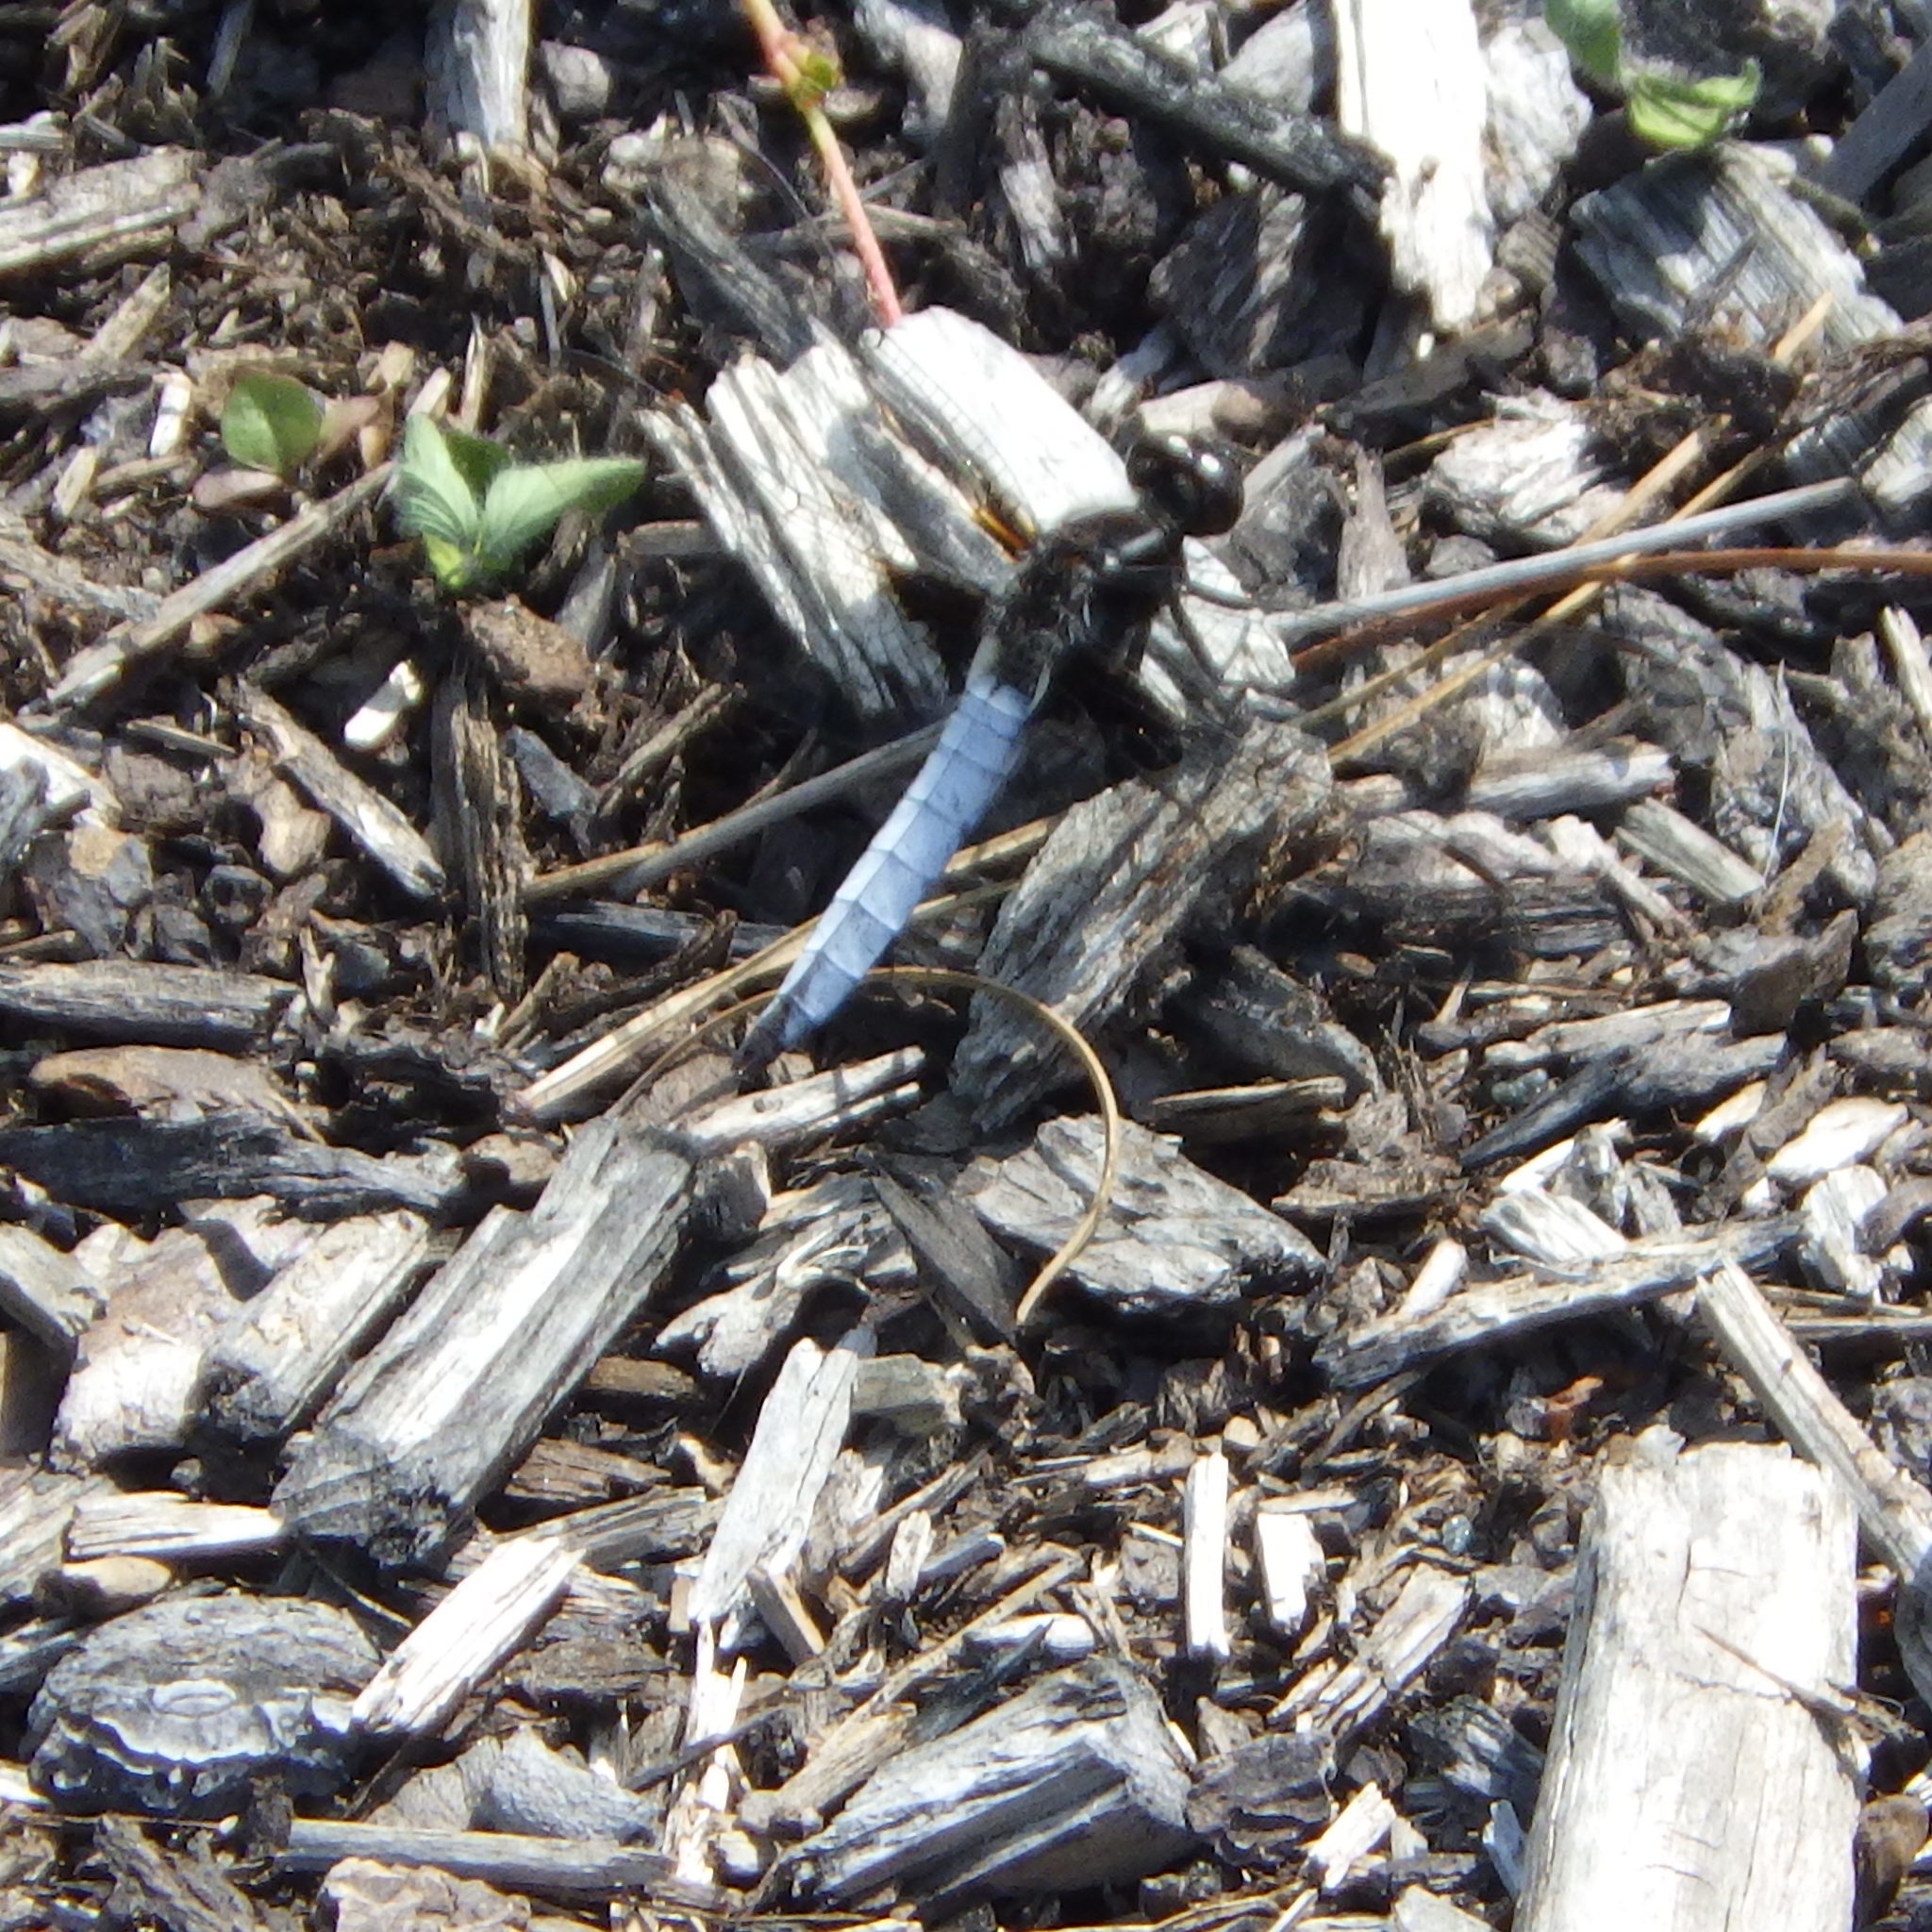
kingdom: Animalia
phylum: Arthropoda
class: Insecta
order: Odonata
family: Libellulidae
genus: Ladona
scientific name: Ladona exusta
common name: Libellule embrasée
